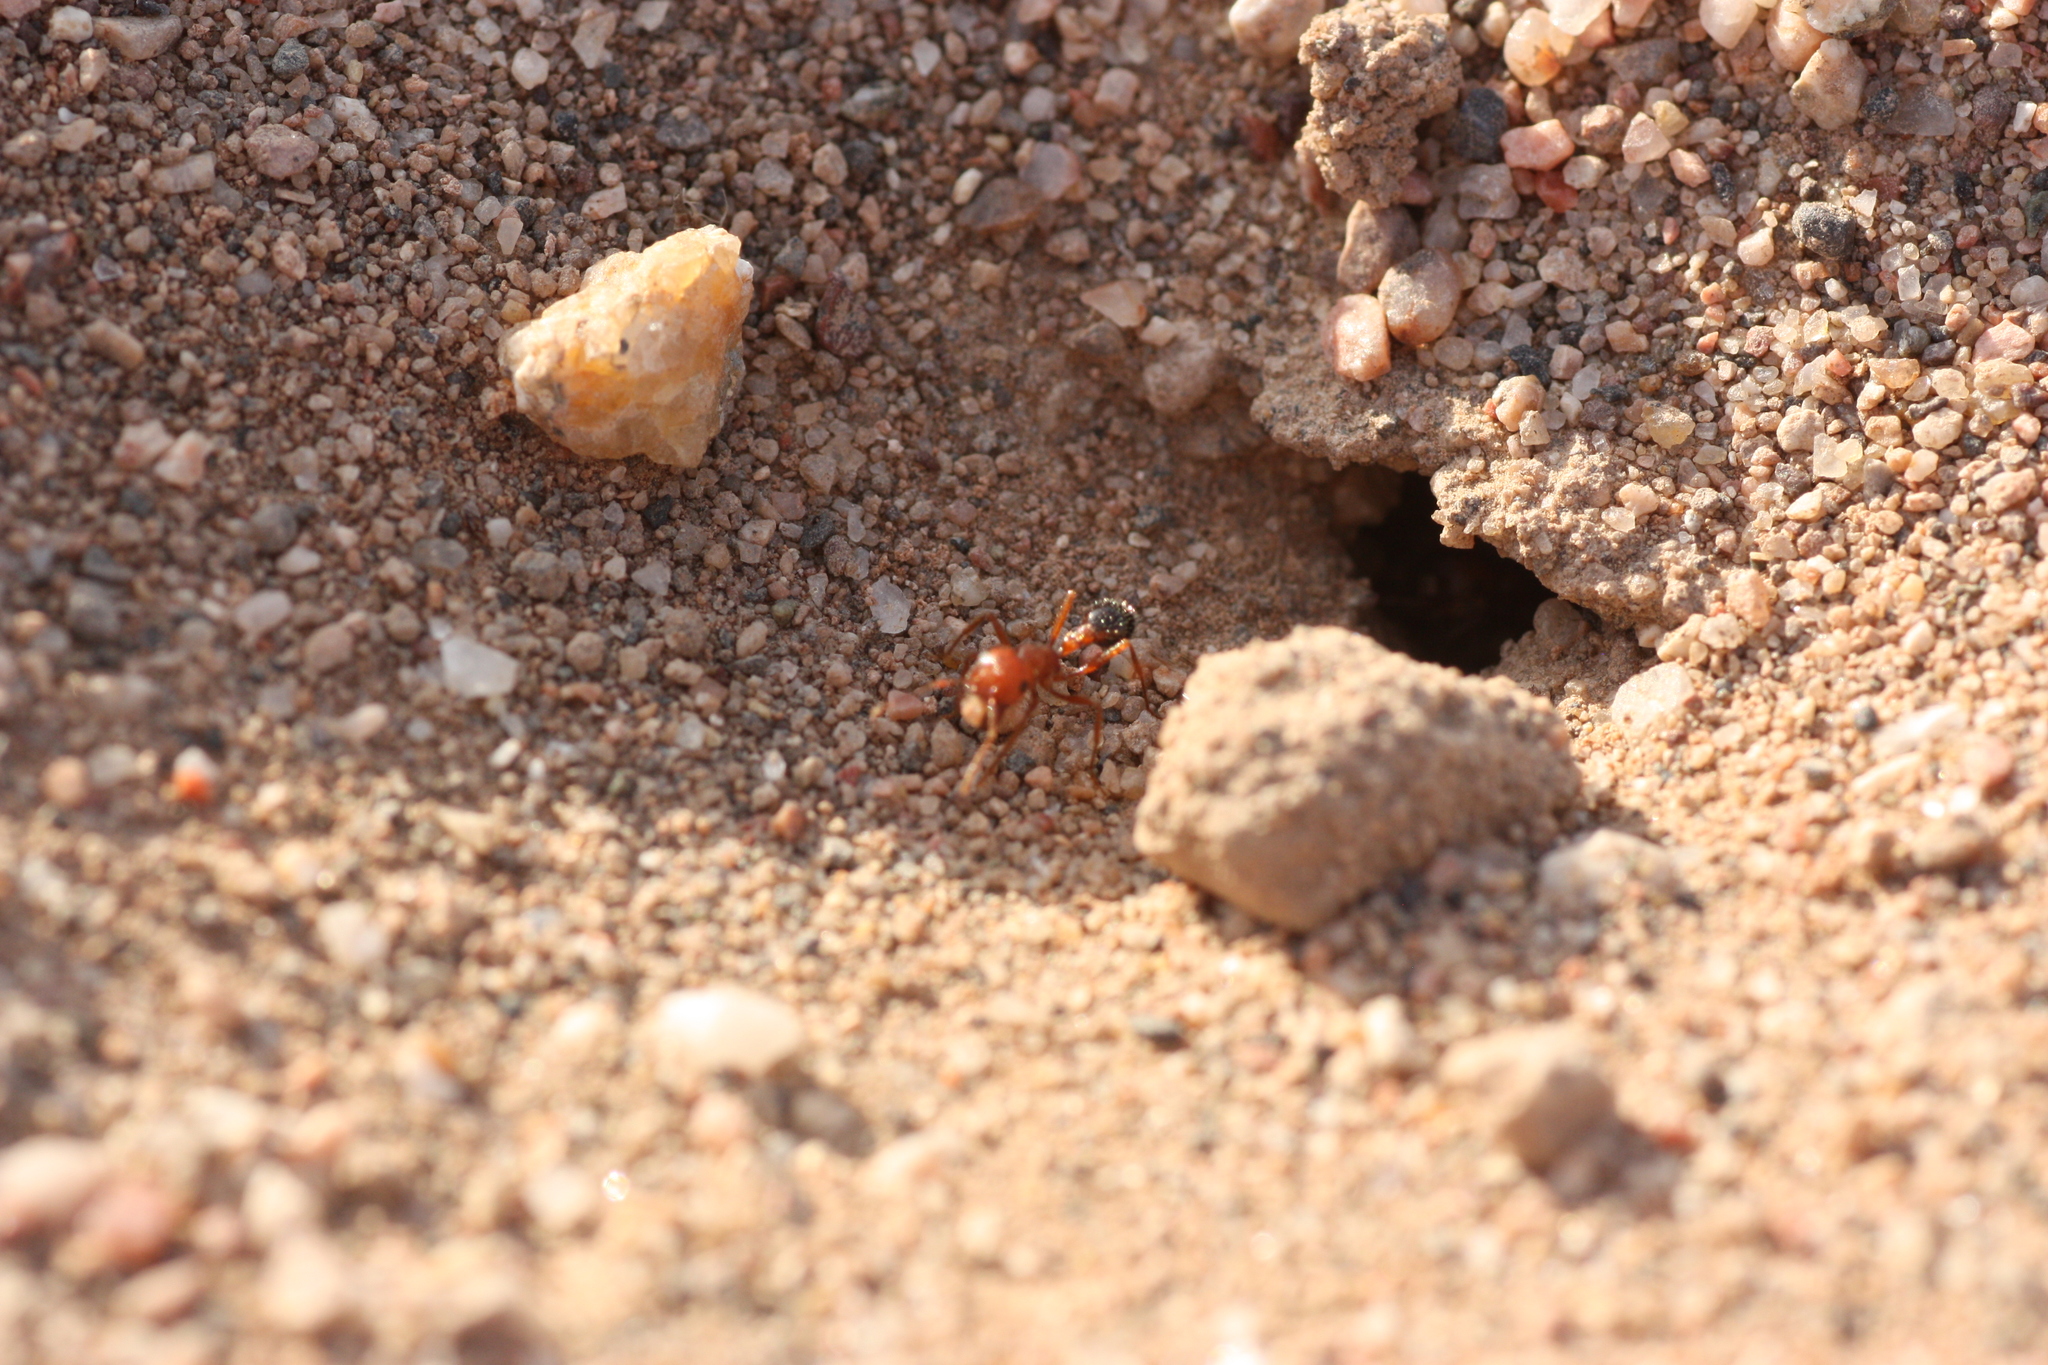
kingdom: Animalia
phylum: Arthropoda
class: Insecta
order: Hymenoptera
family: Formicidae
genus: Pogonomyrmex
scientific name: Pogonomyrmex californicus
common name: California harvester ant
